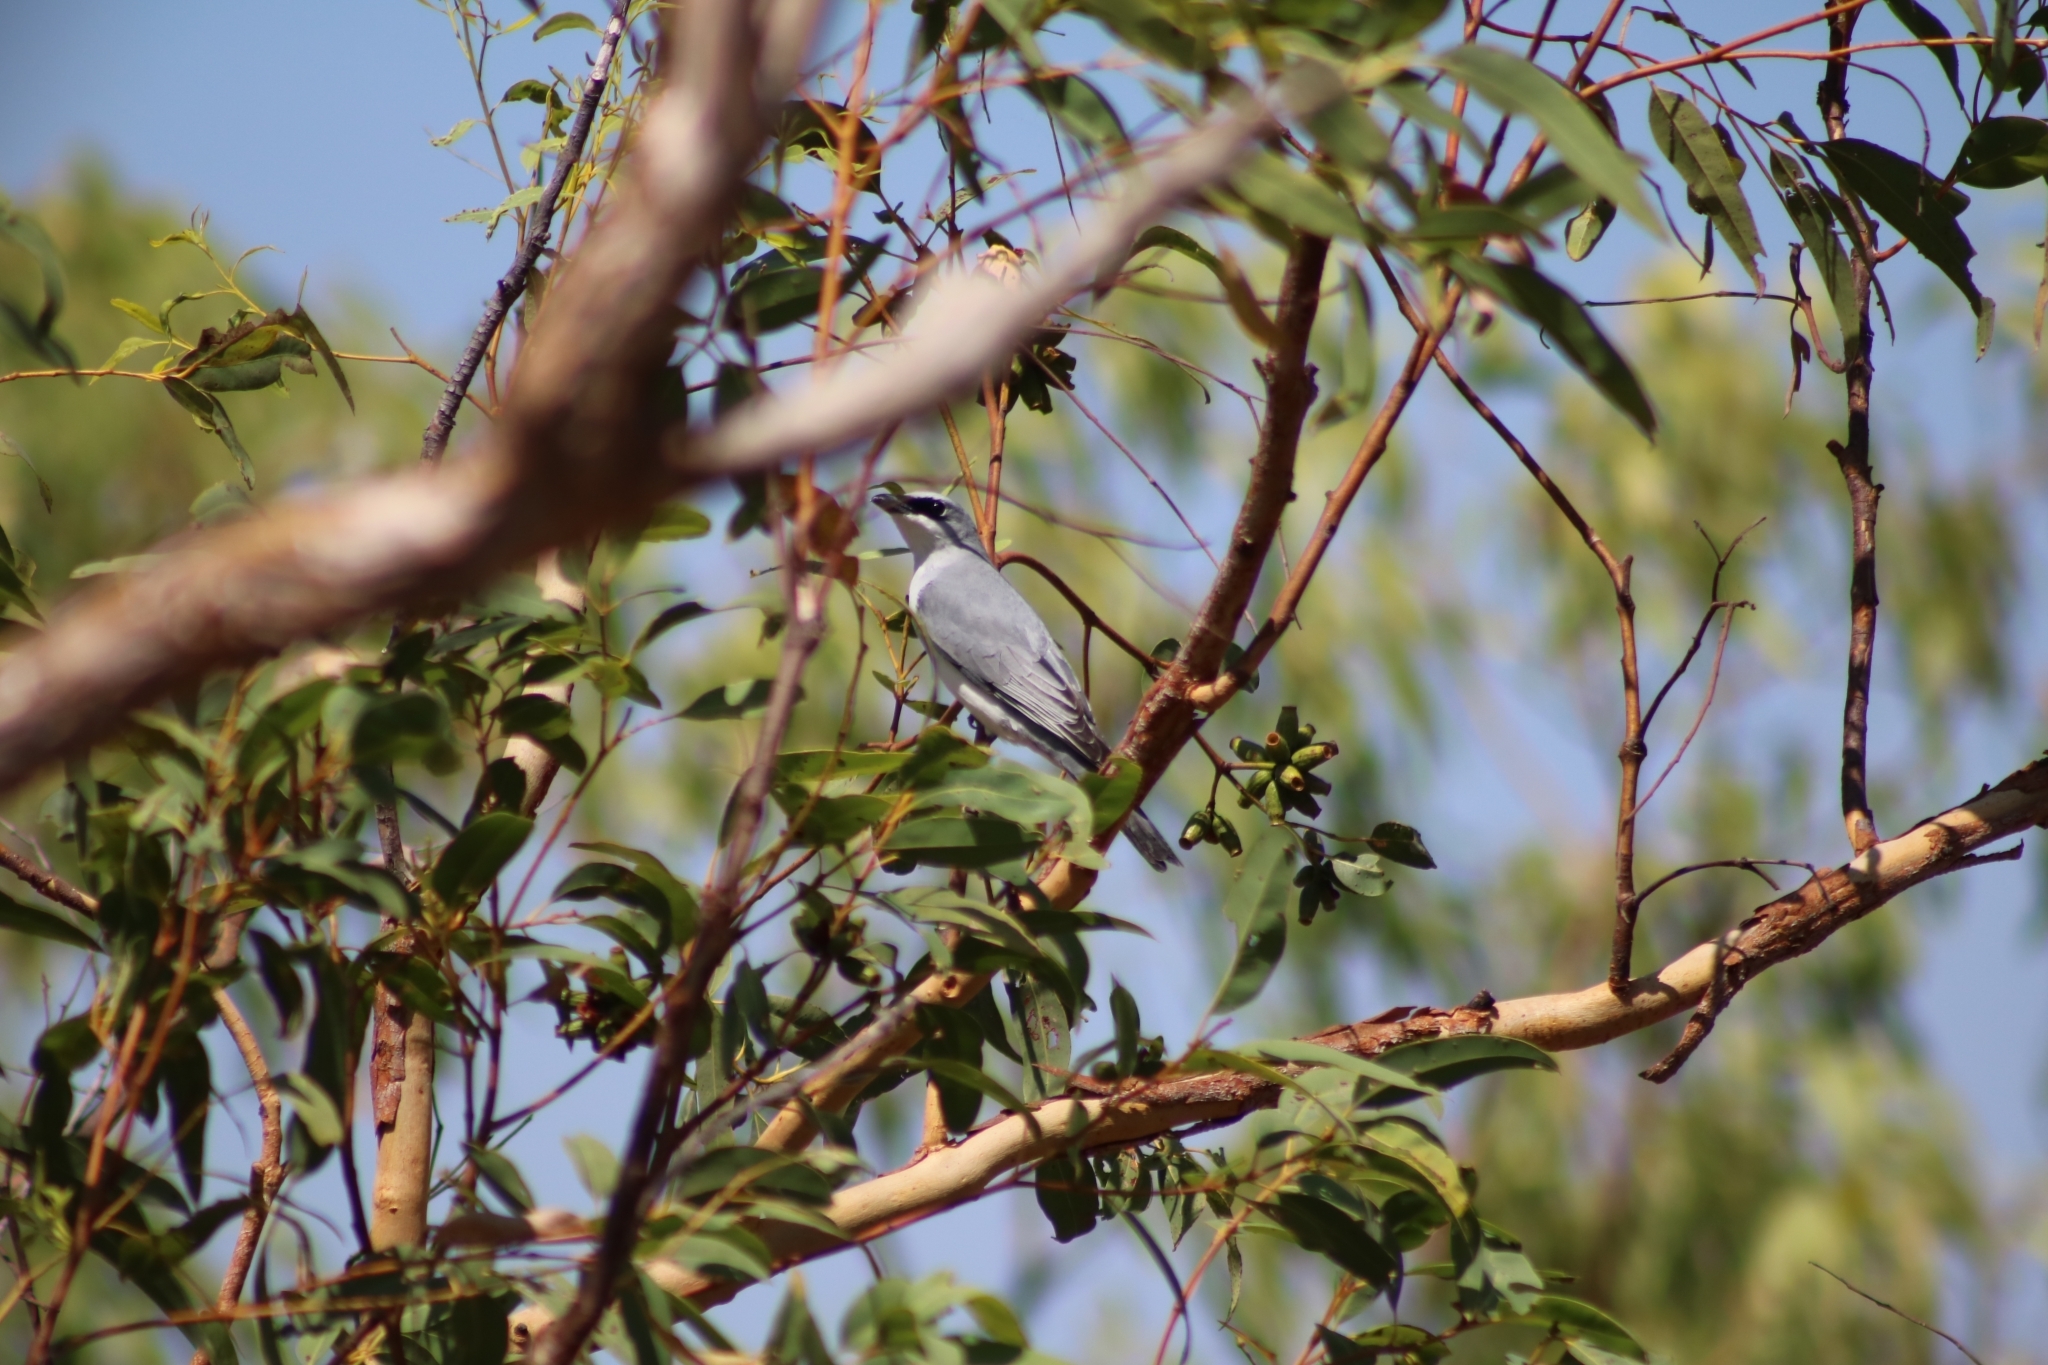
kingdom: Animalia
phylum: Chordata
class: Aves
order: Passeriformes
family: Campephagidae
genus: Coracina
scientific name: Coracina papuensis
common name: White-bellied cuckooshrike
